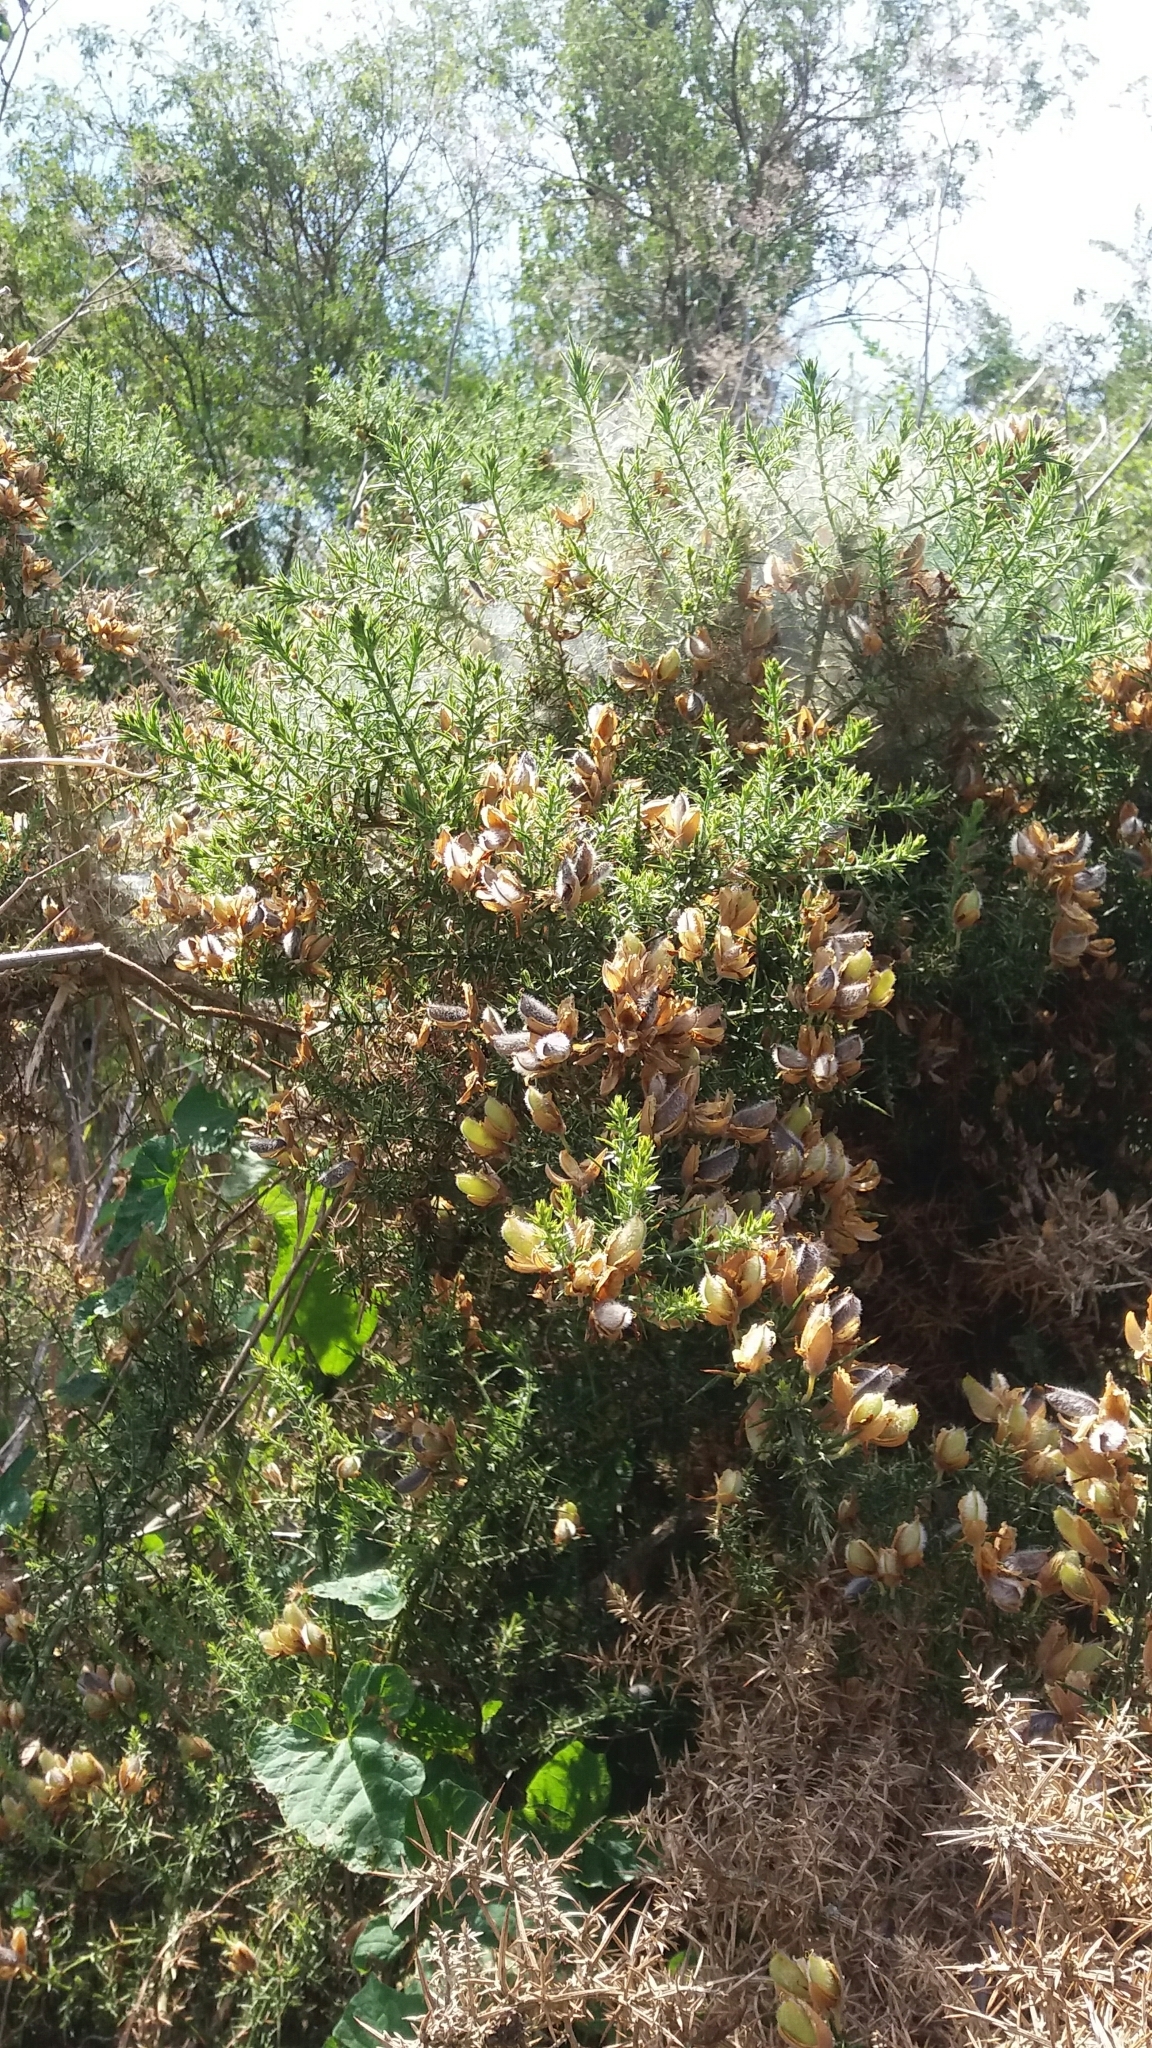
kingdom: Plantae
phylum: Tracheophyta
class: Magnoliopsida
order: Fabales
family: Fabaceae
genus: Ulex
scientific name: Ulex europaeus
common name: Common gorse
